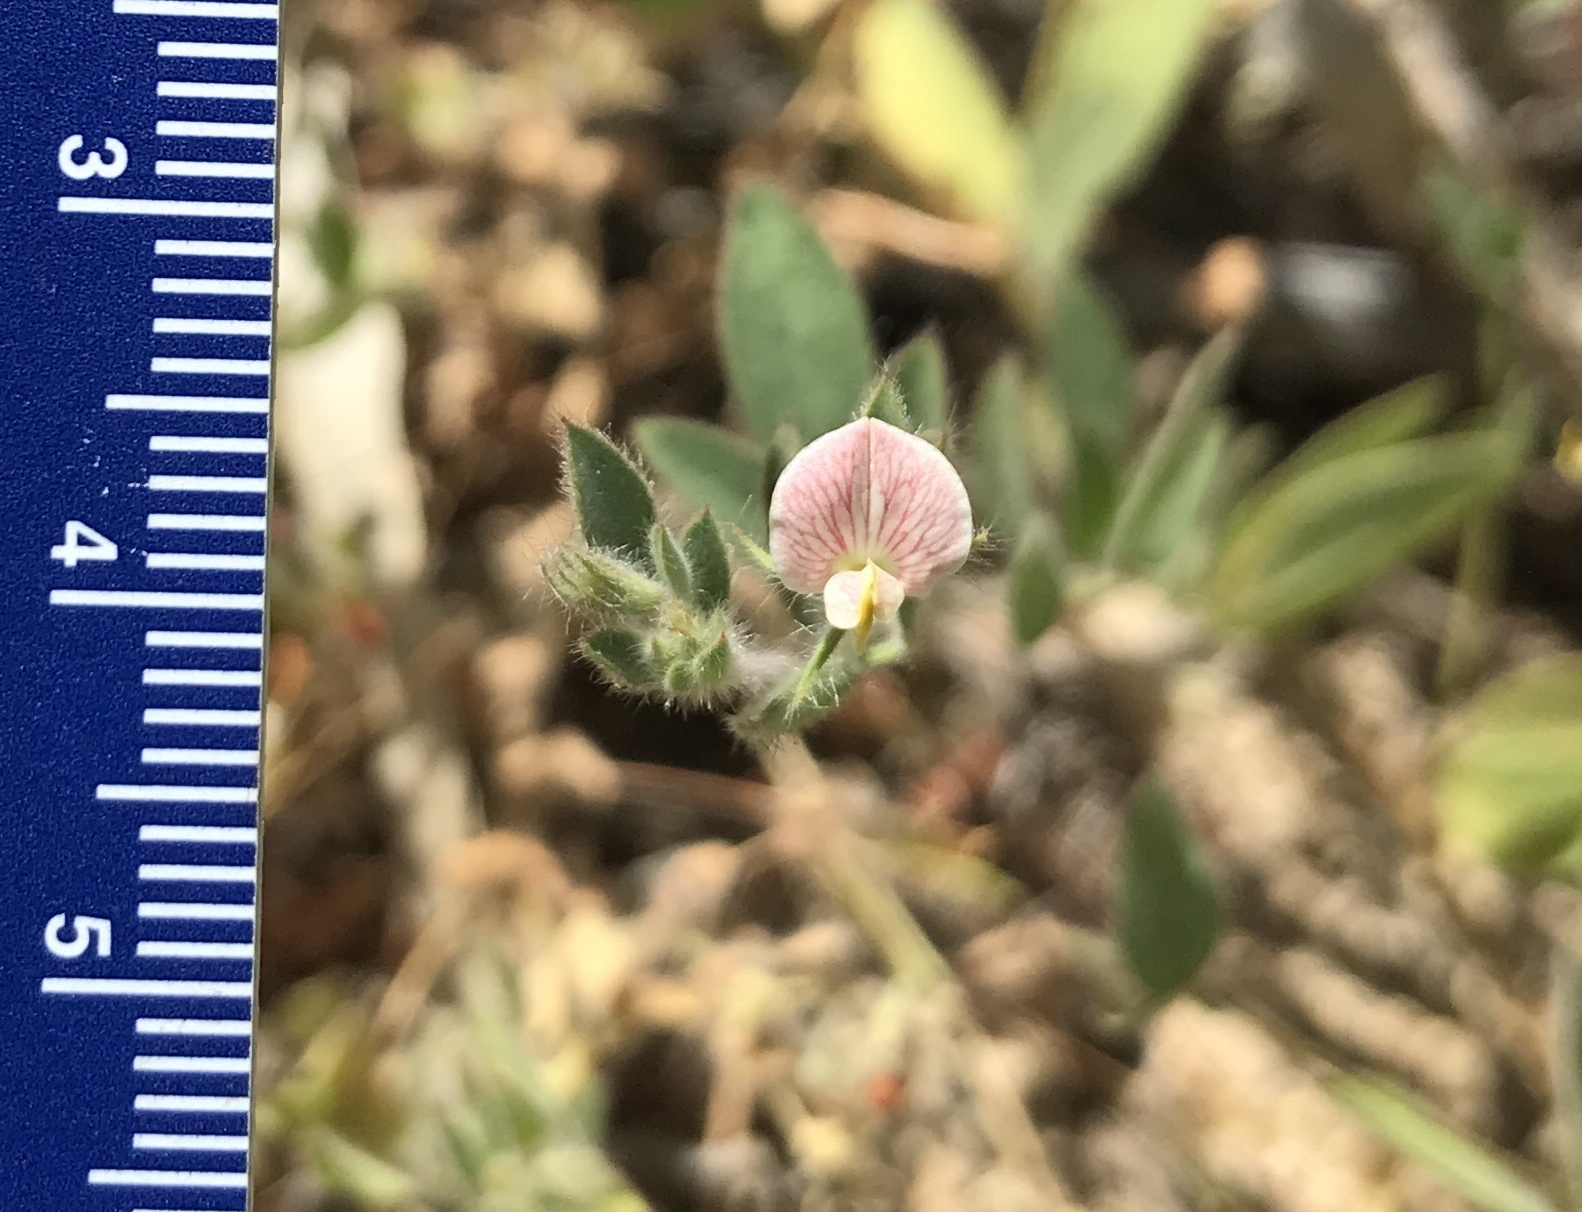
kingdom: Plantae
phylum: Tracheophyta
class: Magnoliopsida
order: Fabales
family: Fabaceae
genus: Acmispon
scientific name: Acmispon americanus
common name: American bird's-foot trefoil
